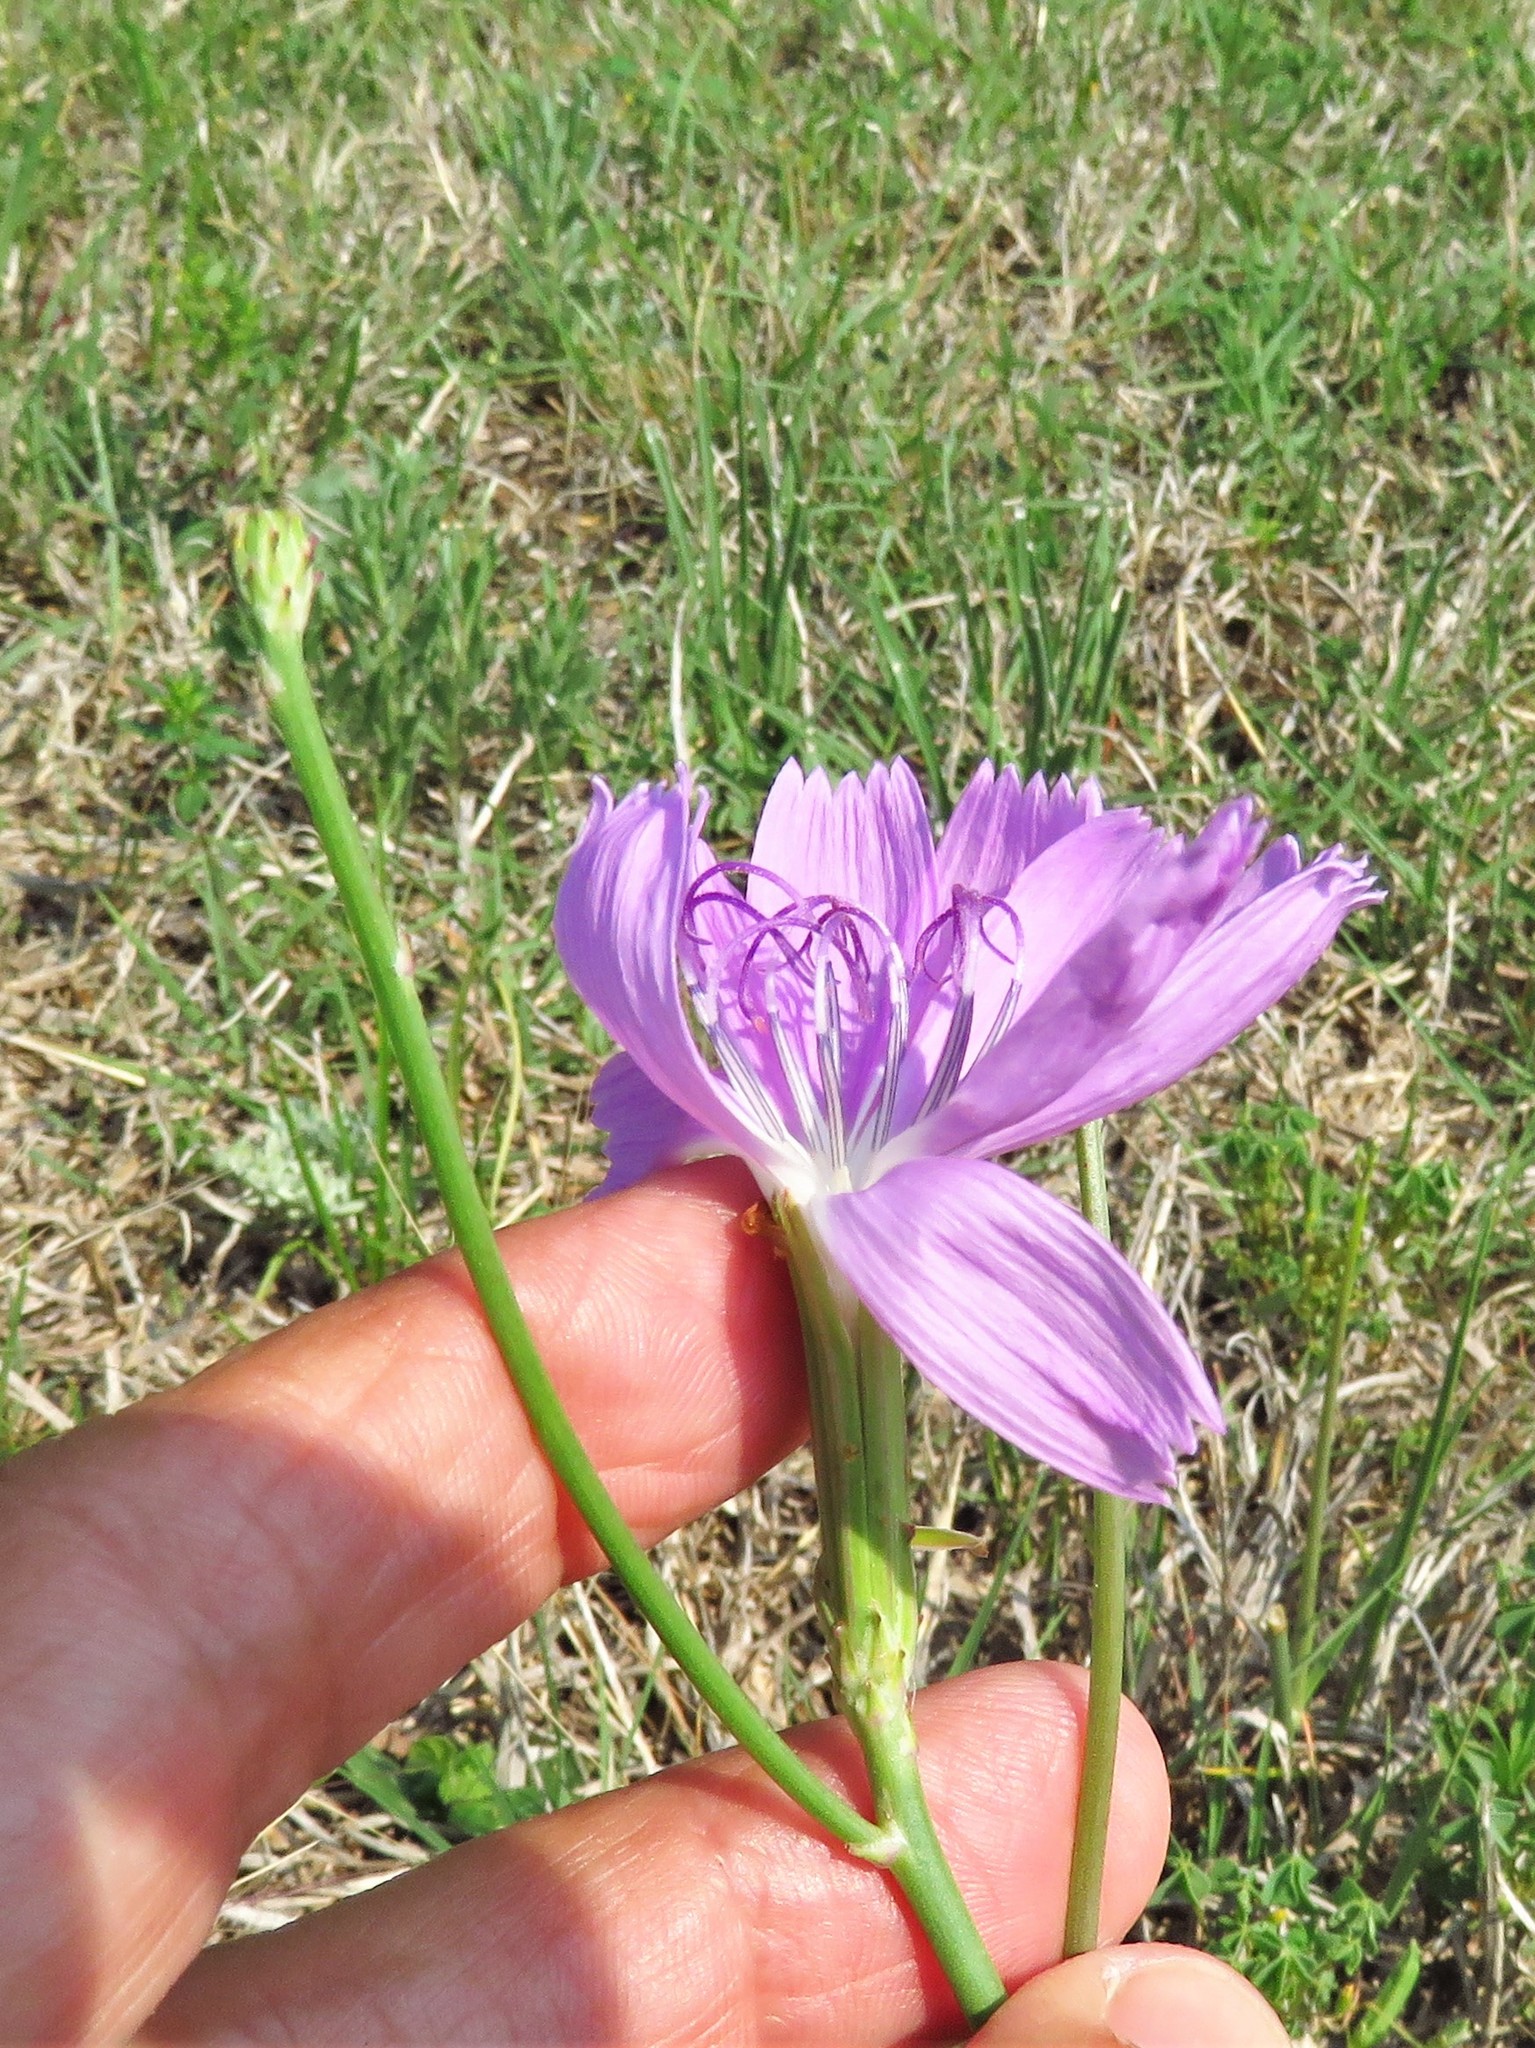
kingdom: Plantae
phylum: Tracheophyta
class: Magnoliopsida
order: Asterales
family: Asteraceae
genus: Lygodesmia
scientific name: Lygodesmia texana
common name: Texas skeleton-plant
